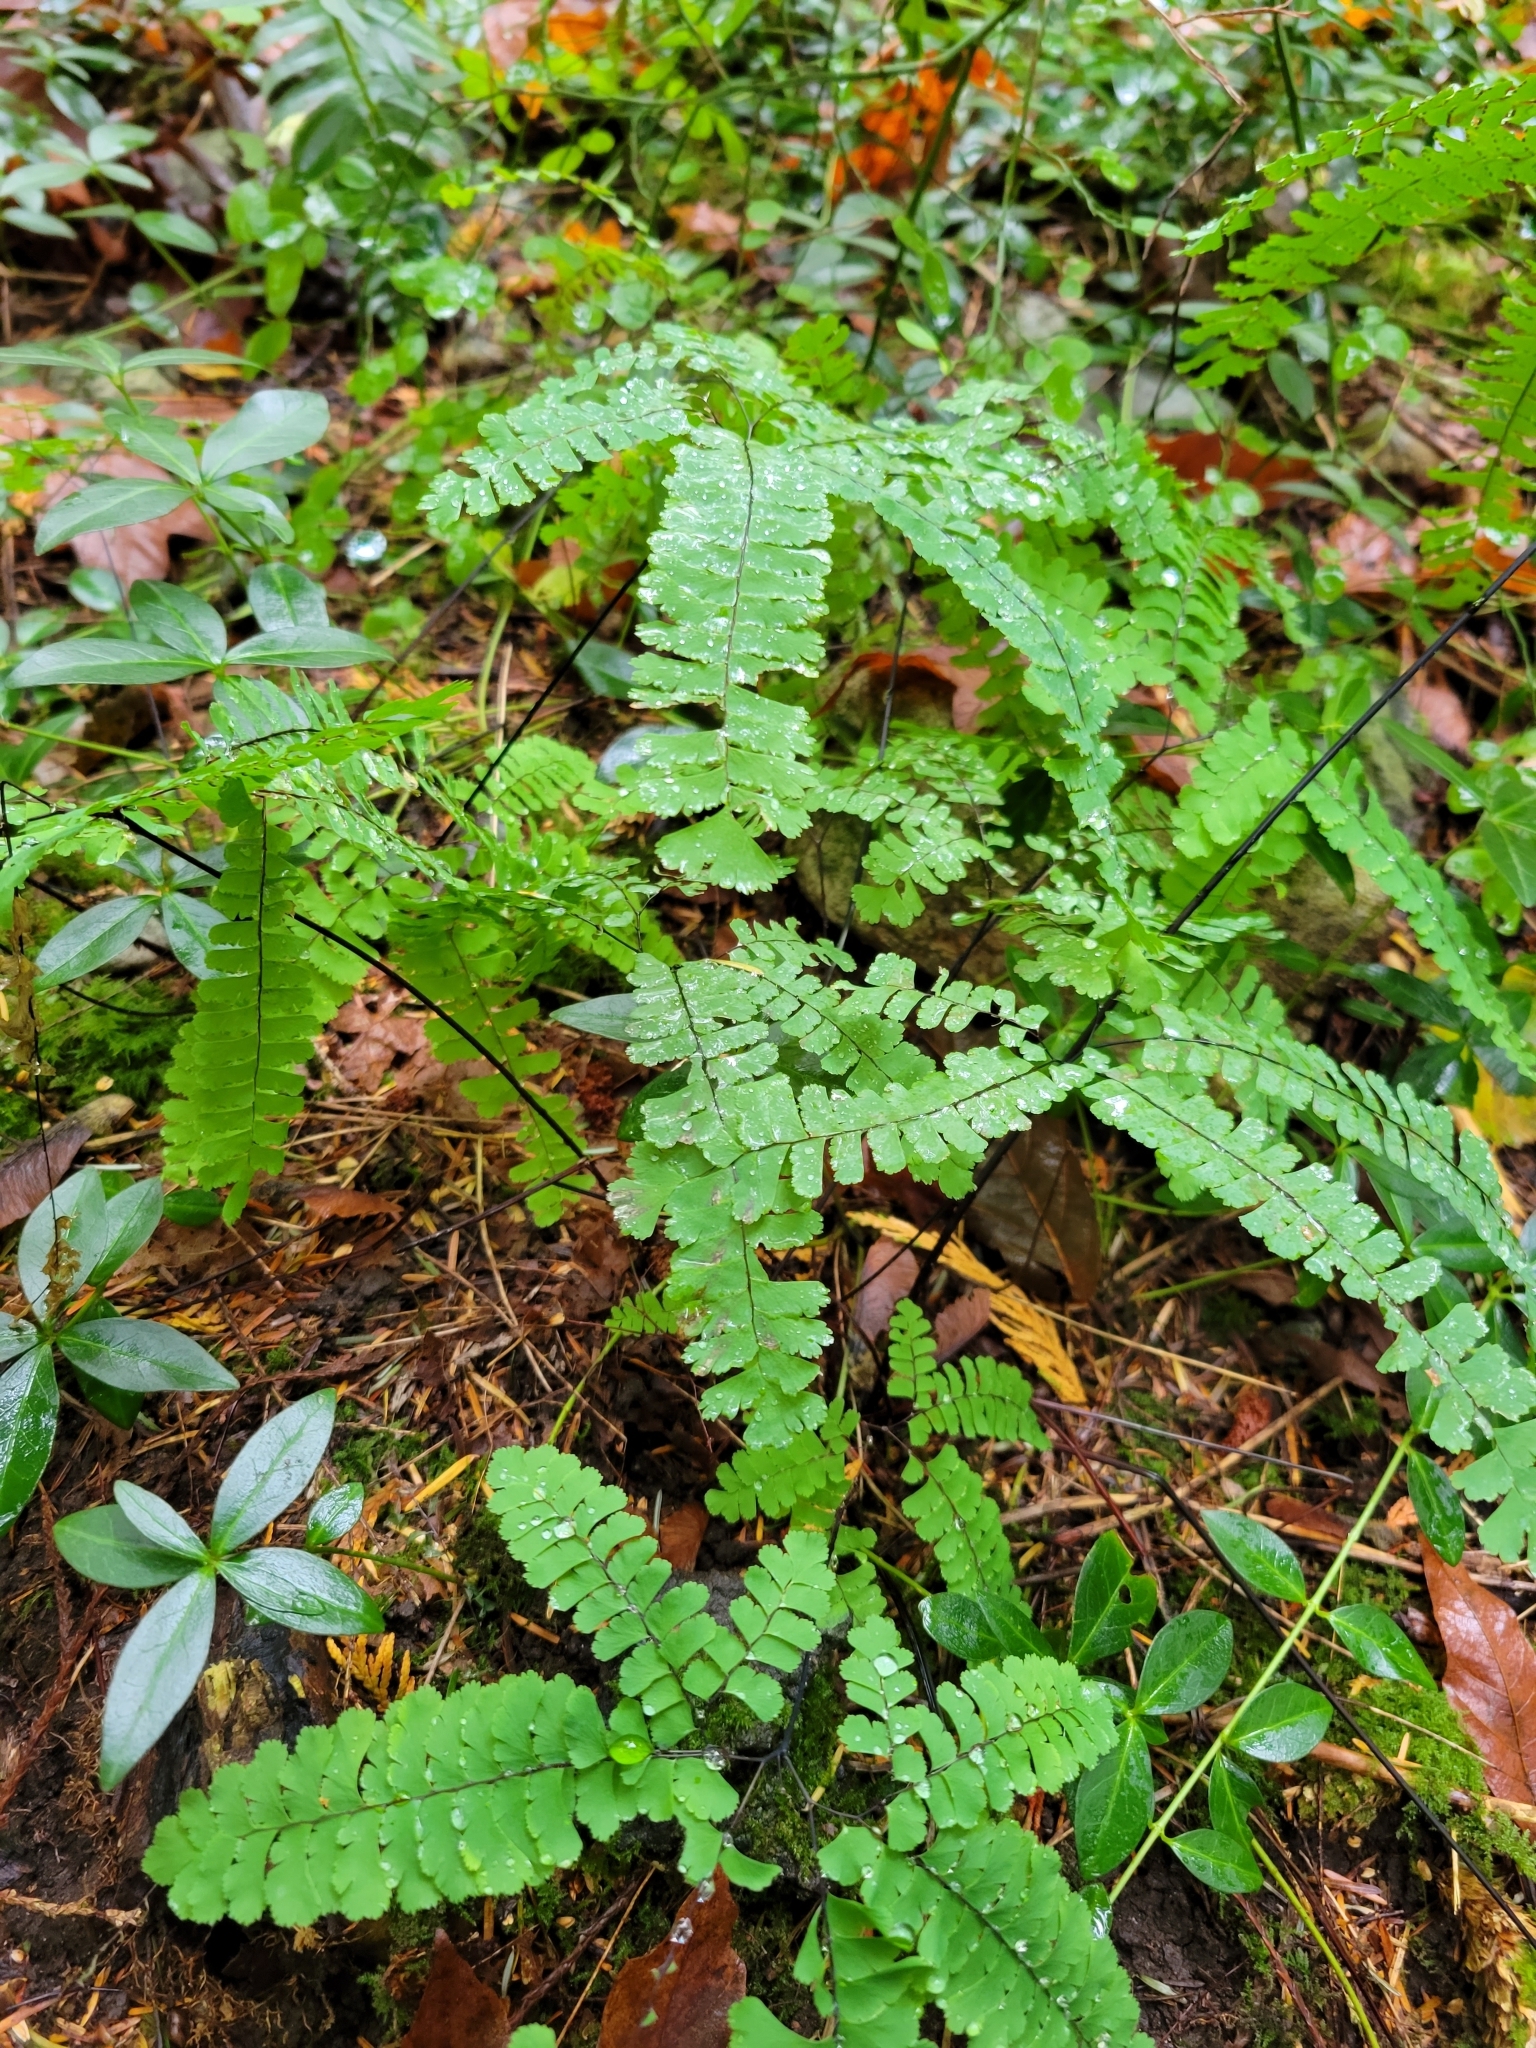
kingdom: Plantae
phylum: Tracheophyta
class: Polypodiopsida
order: Polypodiales
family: Pteridaceae
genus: Adiantum
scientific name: Adiantum aleuticum
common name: Aleutian maidenhair fern
